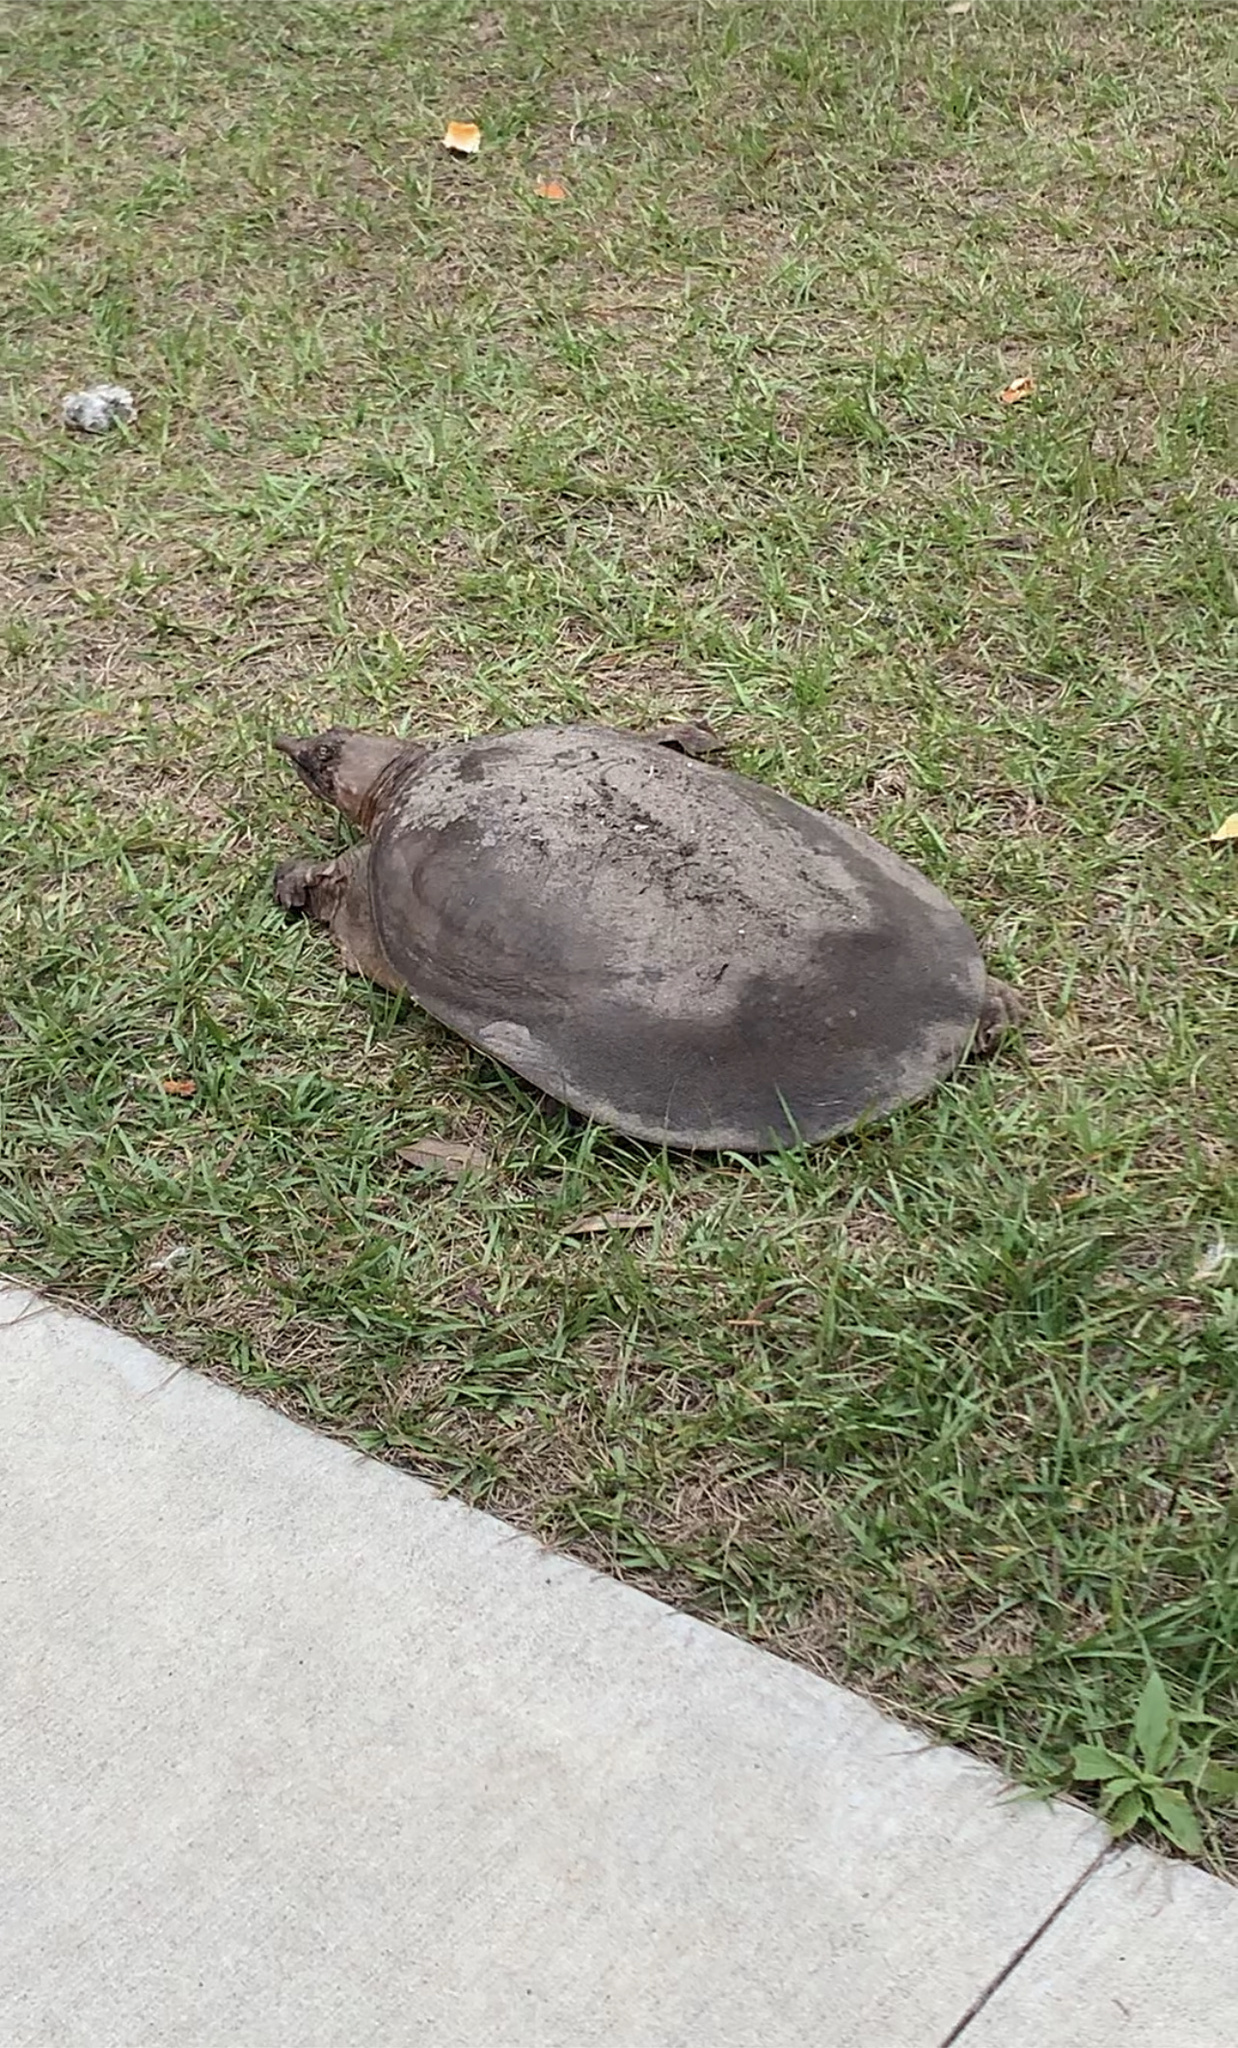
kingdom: Animalia
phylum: Chordata
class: Testudines
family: Trionychidae
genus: Apalone
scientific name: Apalone ferox
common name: Florida softshell turtle
